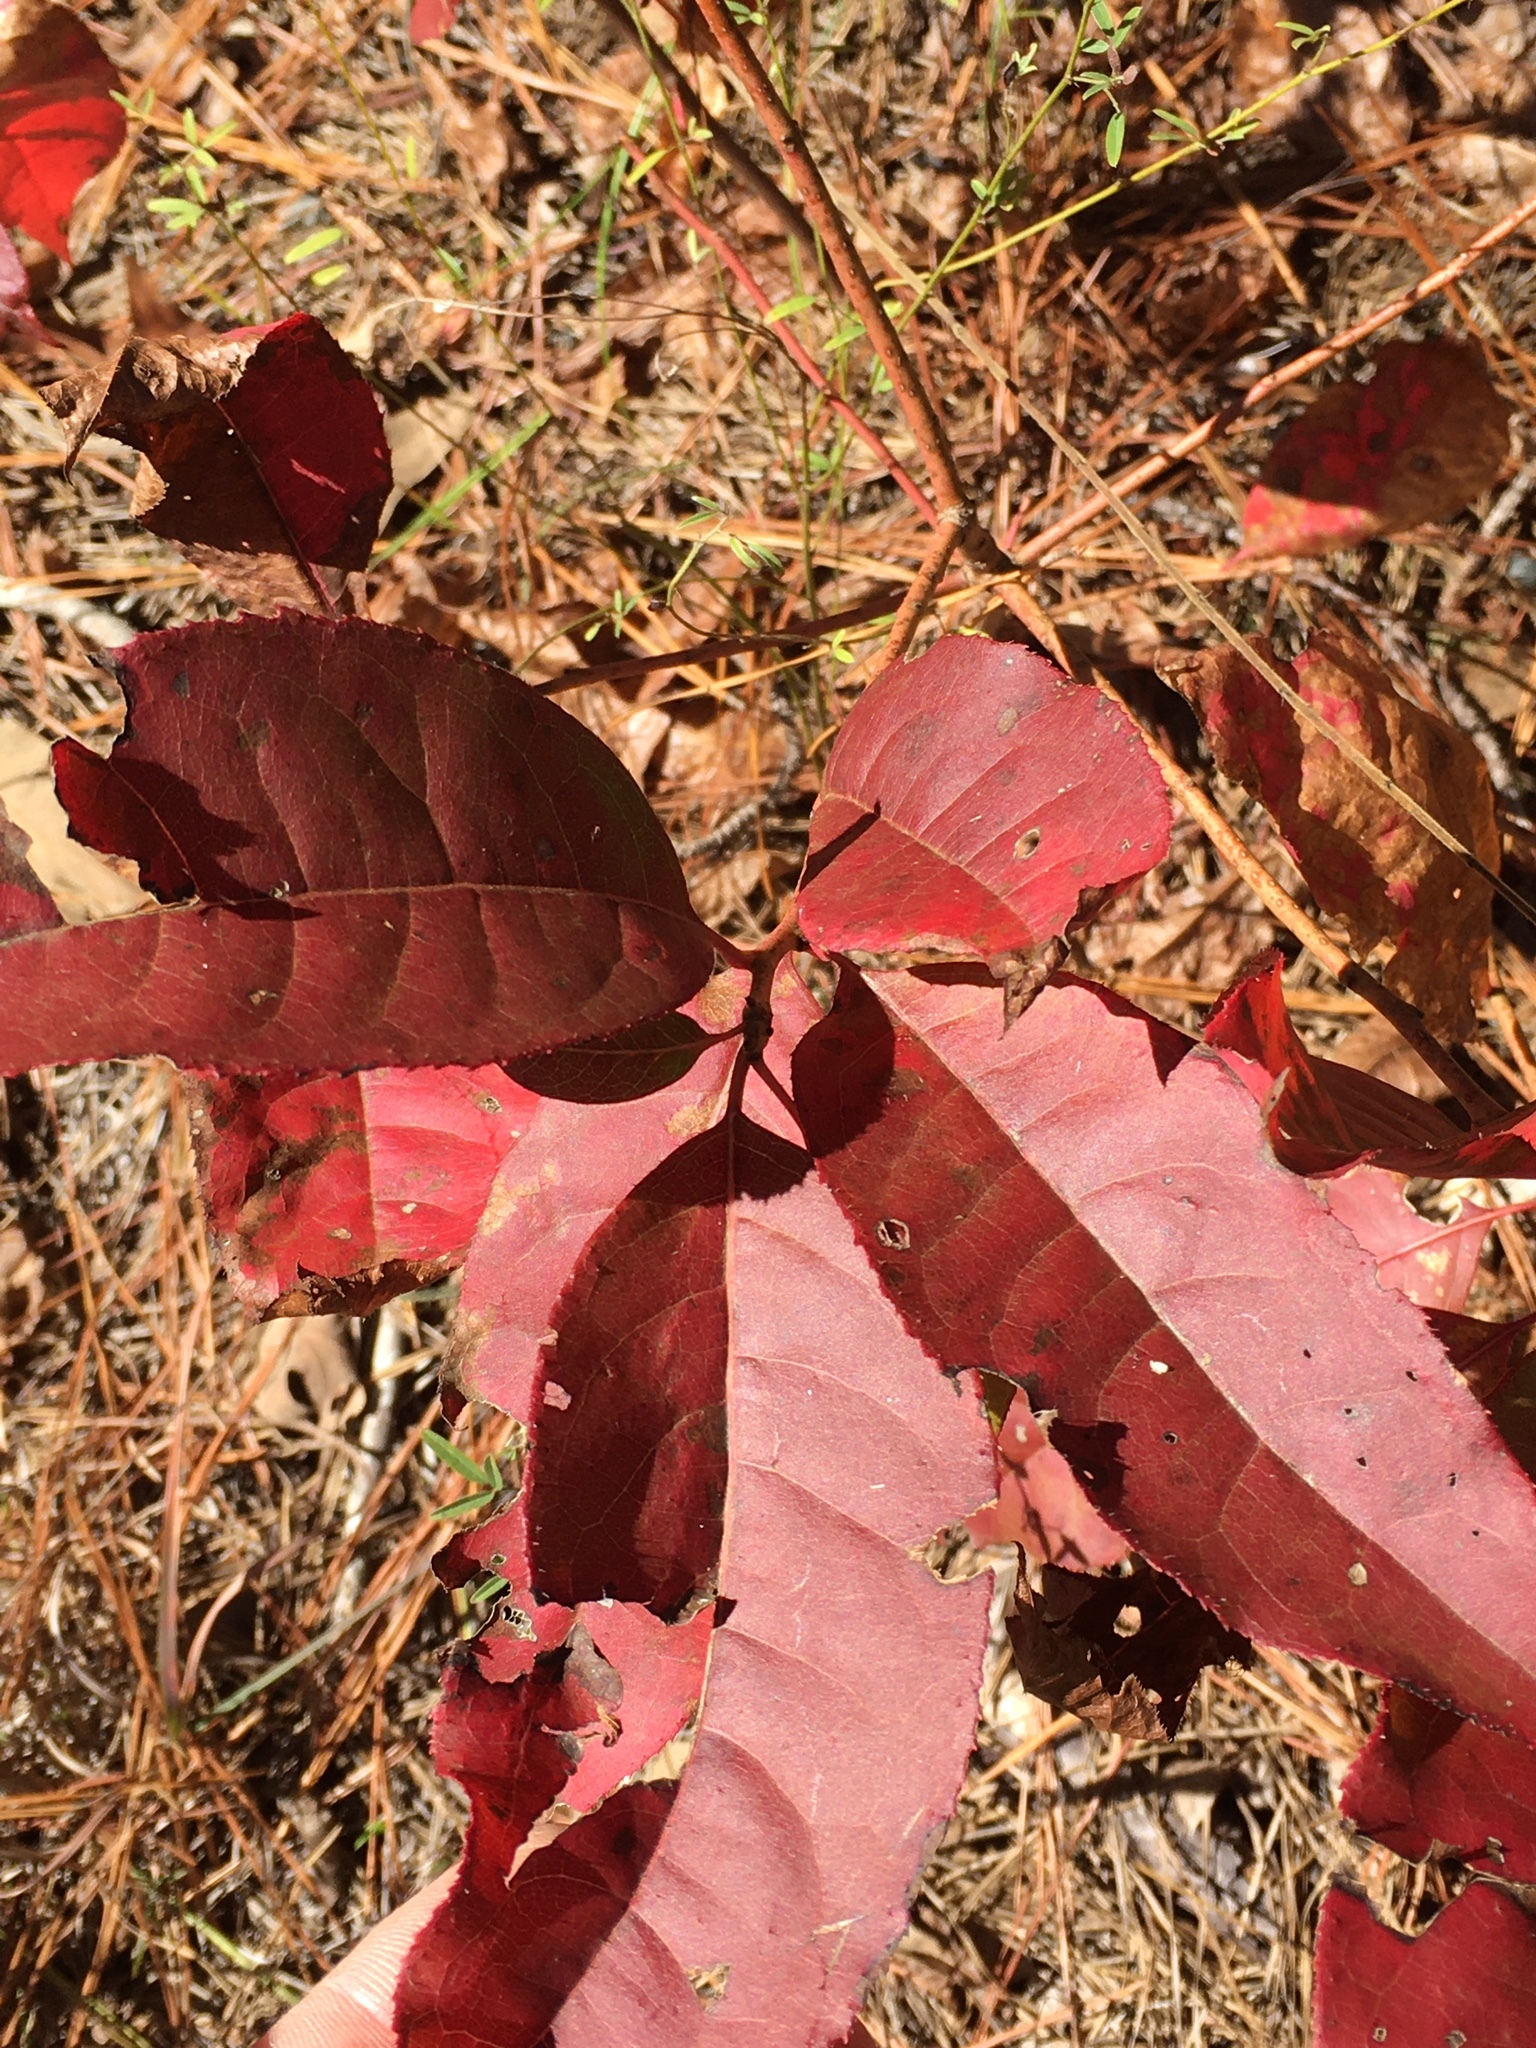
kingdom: Plantae
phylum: Tracheophyta
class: Magnoliopsida
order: Ericales
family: Ericaceae
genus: Oxydendrum
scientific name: Oxydendrum arboreum
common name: Sourwood
